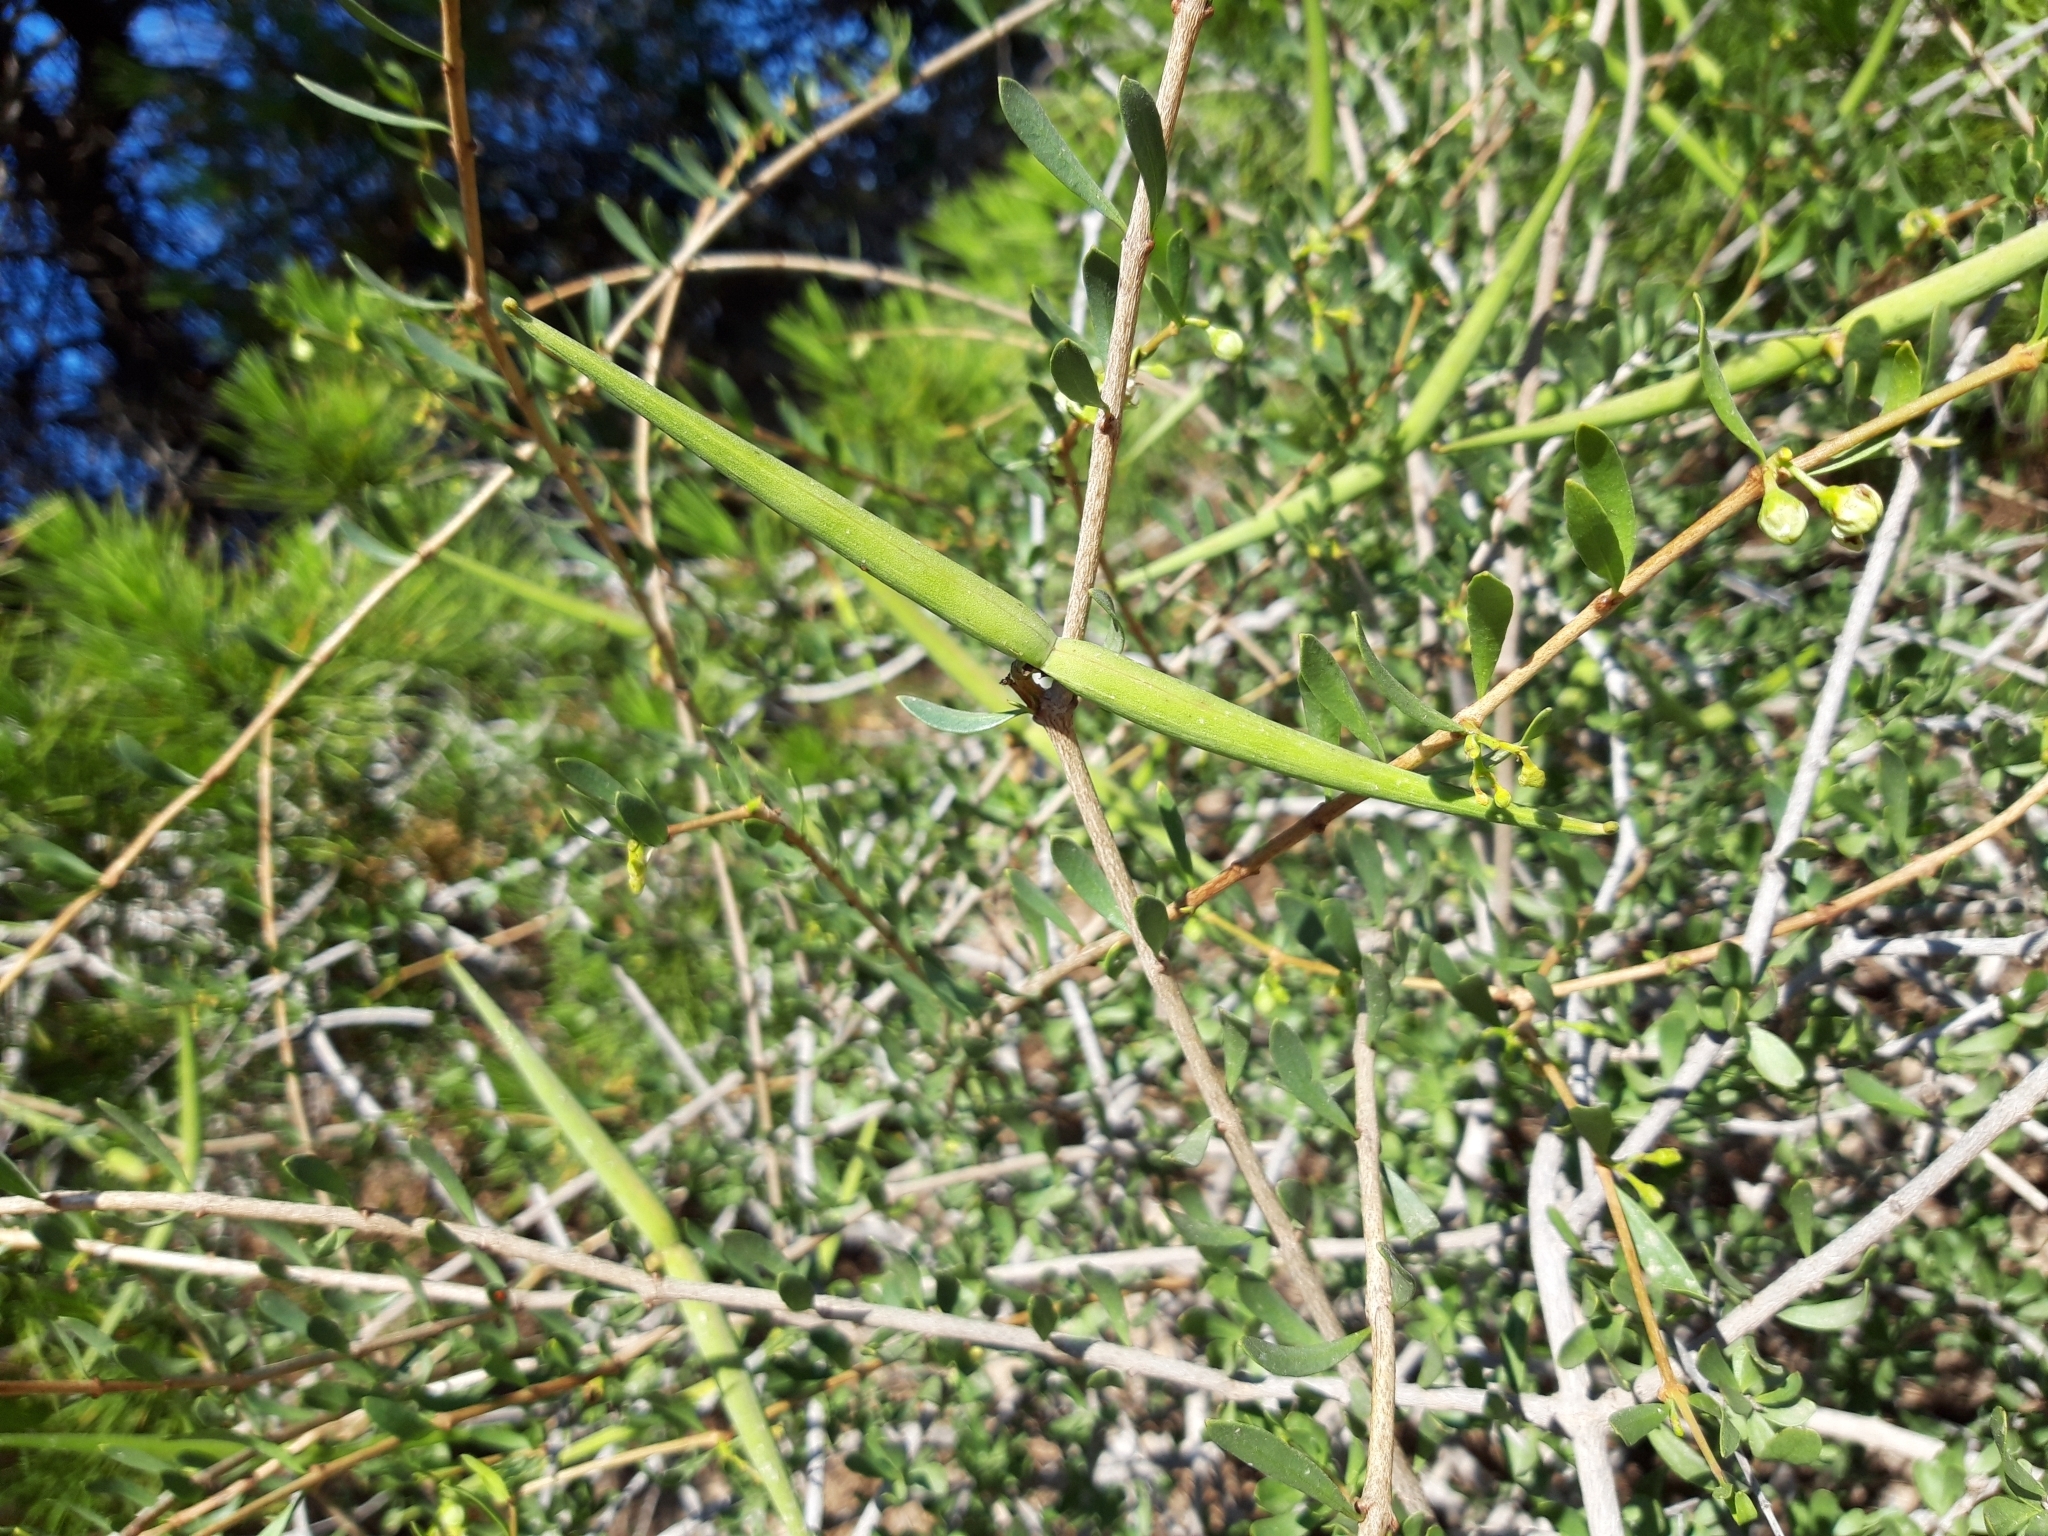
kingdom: Plantae
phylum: Tracheophyta
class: Magnoliopsida
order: Gentianales
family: Apocynaceae
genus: Periploca
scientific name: Periploca laevigata
